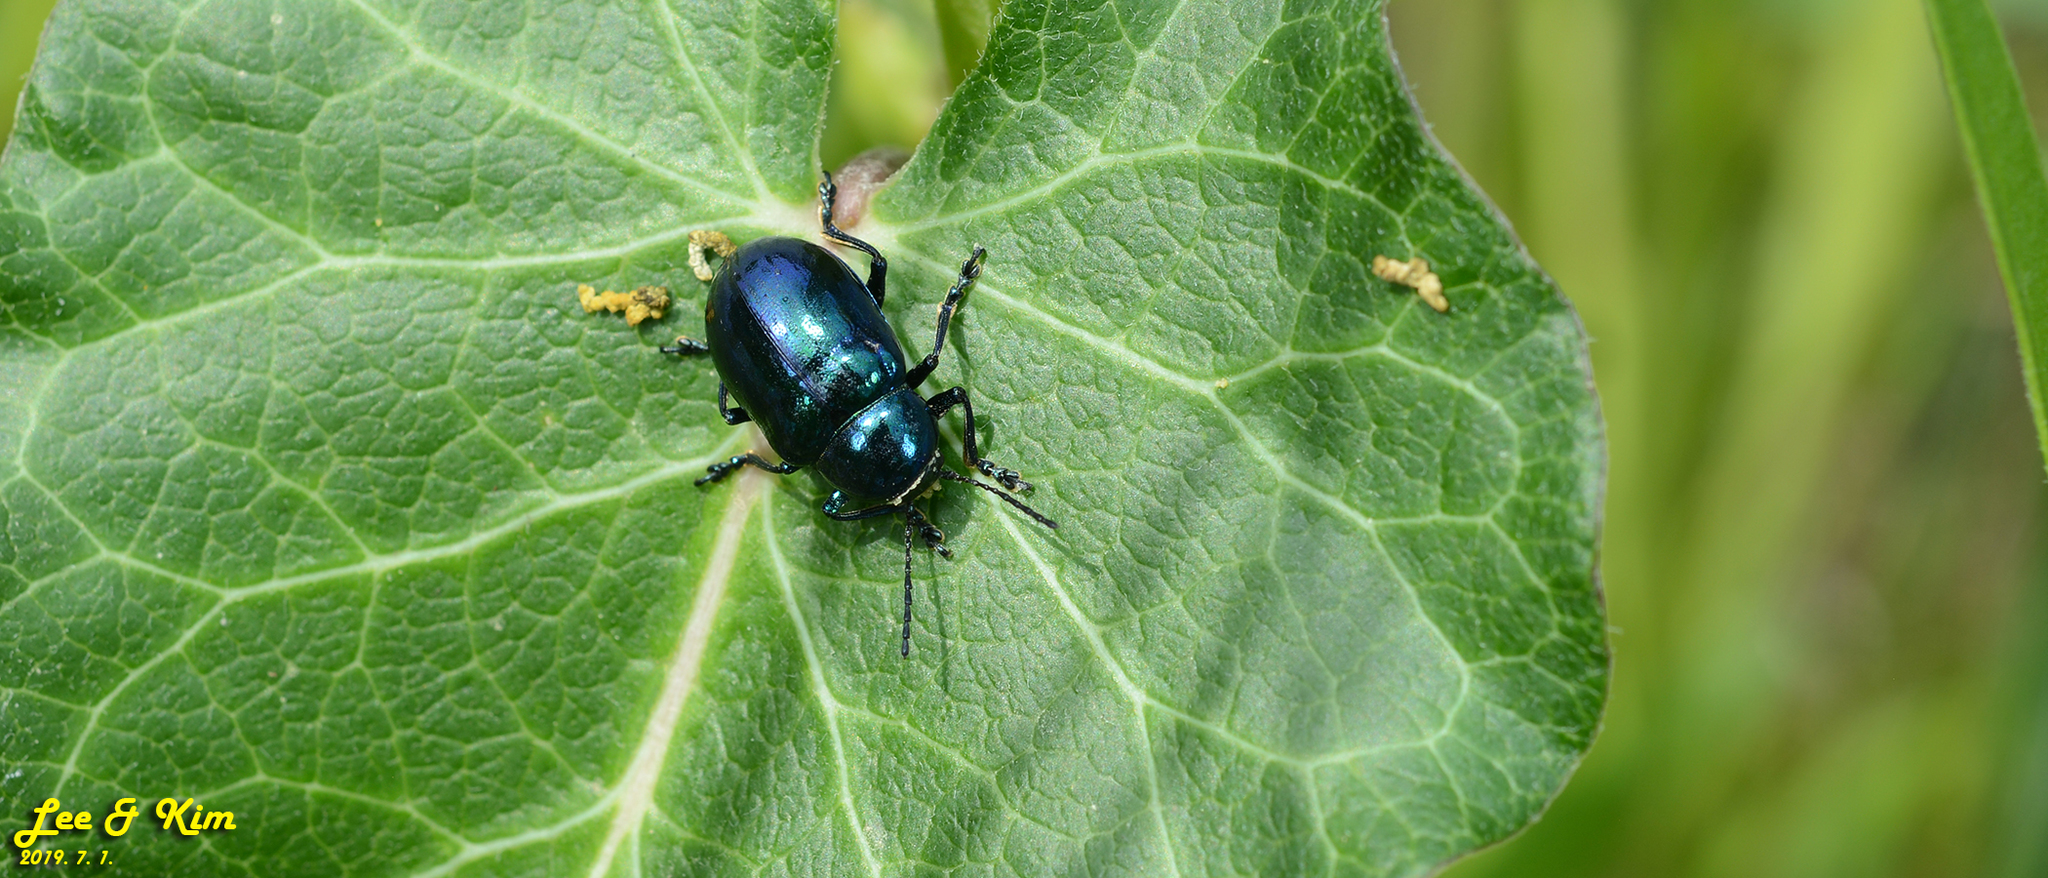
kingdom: Animalia
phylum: Arthropoda
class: Insecta
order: Coleoptera
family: Chrysomelidae
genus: Chrysochus
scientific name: Chrysochus chinensis
